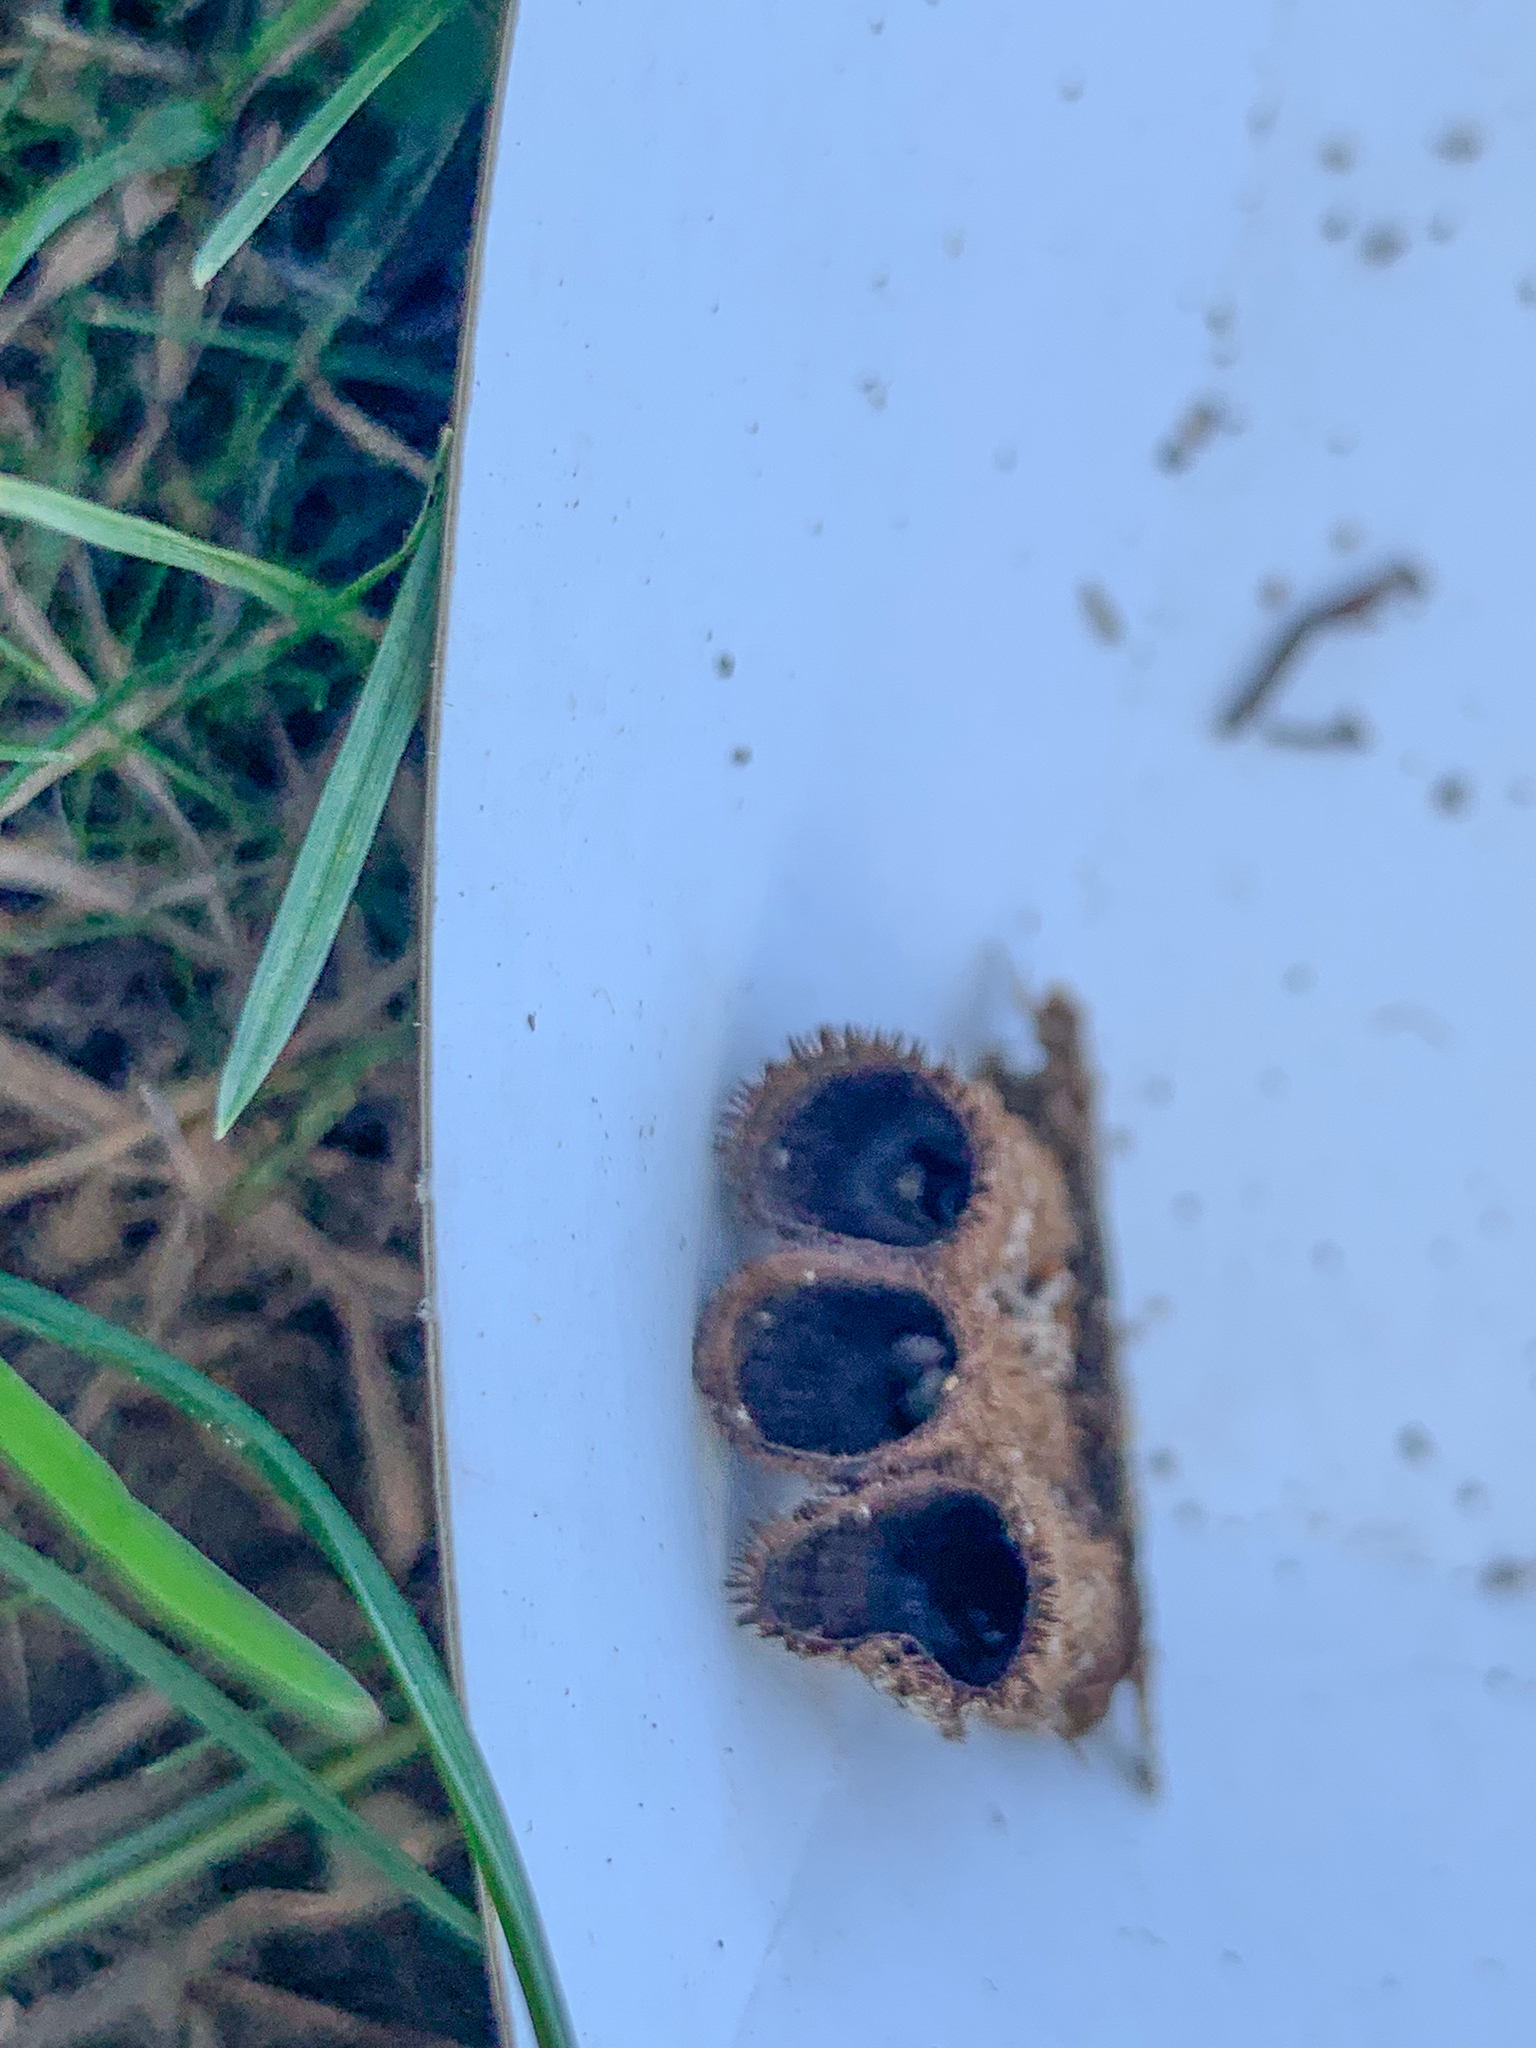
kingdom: Fungi
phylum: Basidiomycota
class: Agaricomycetes
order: Agaricales
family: Agaricaceae
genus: Cyathus
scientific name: Cyathus striatus
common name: Fluted bird's nest
